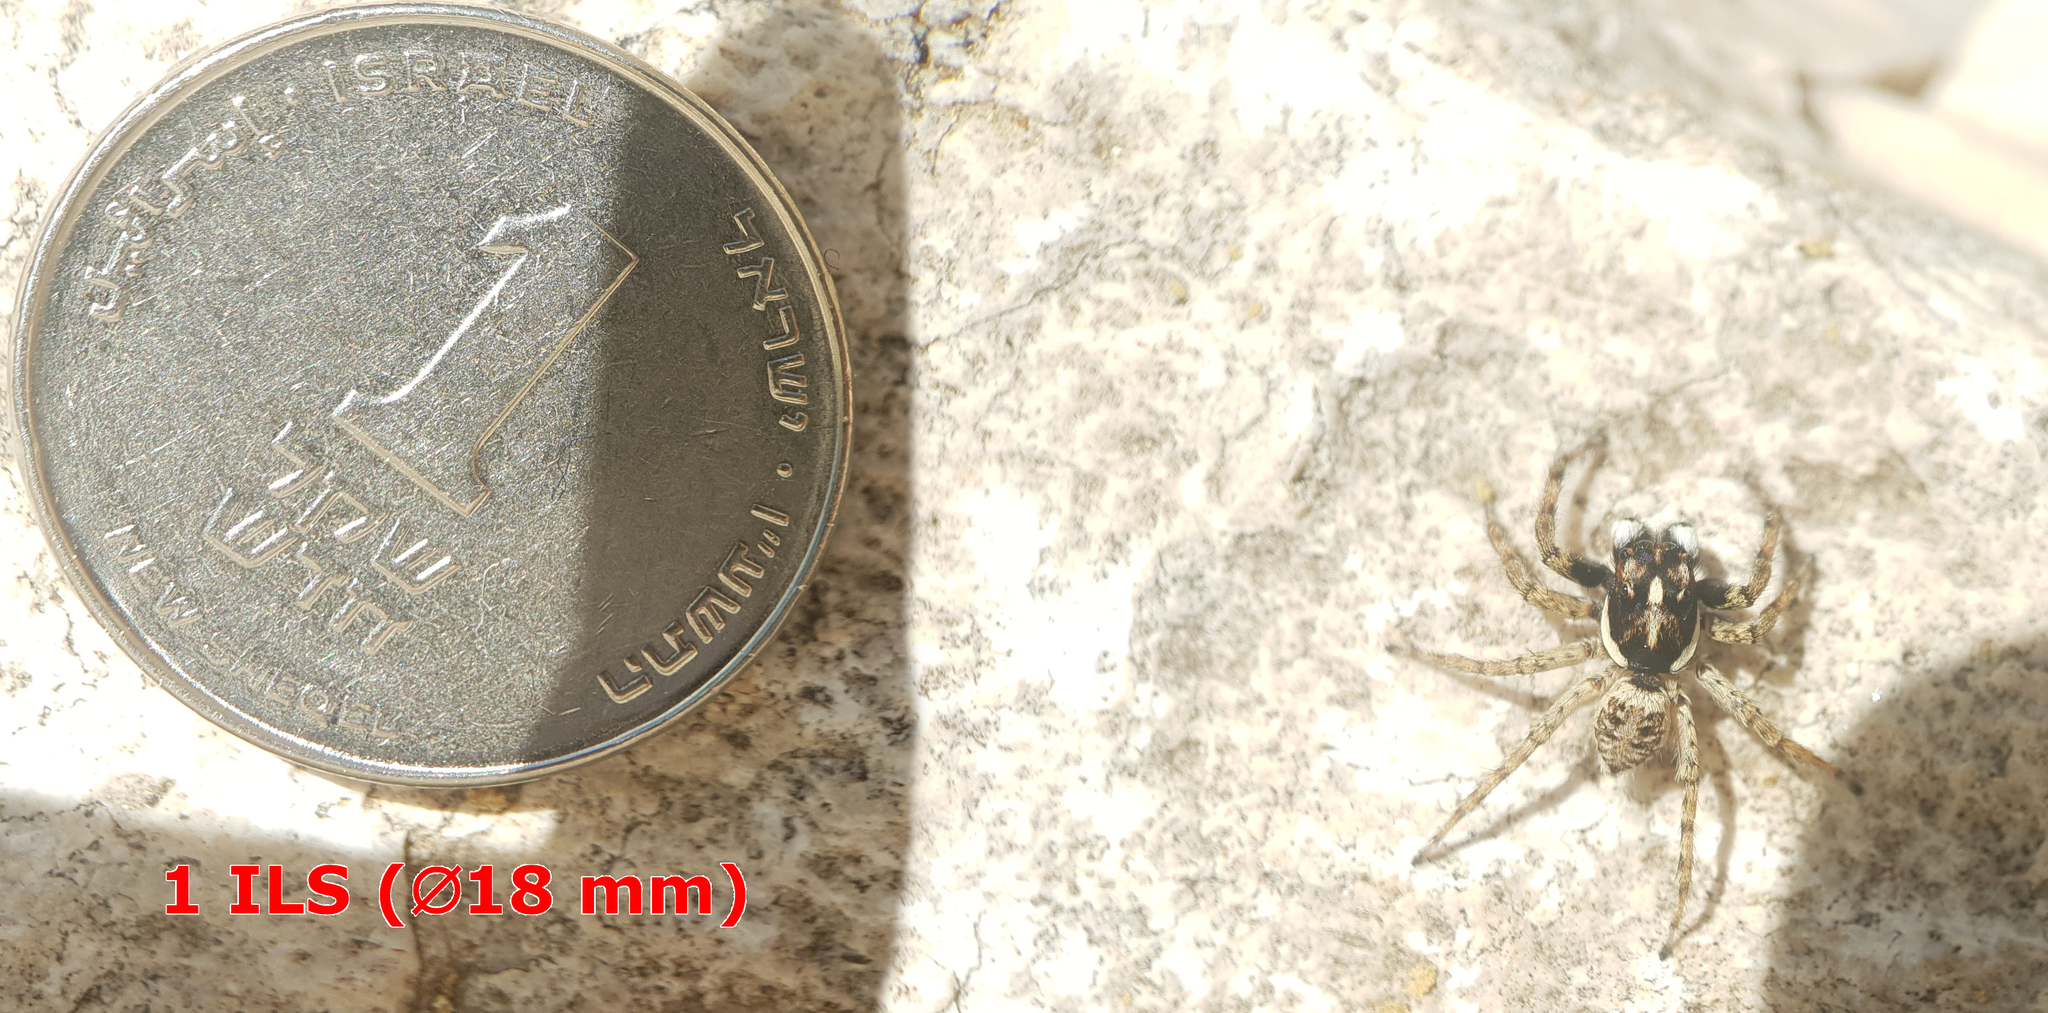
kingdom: Animalia
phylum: Arthropoda
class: Arachnida
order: Araneae
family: Salticidae
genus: Menemerus
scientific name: Menemerus semilimbatus
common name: Jumping spider
